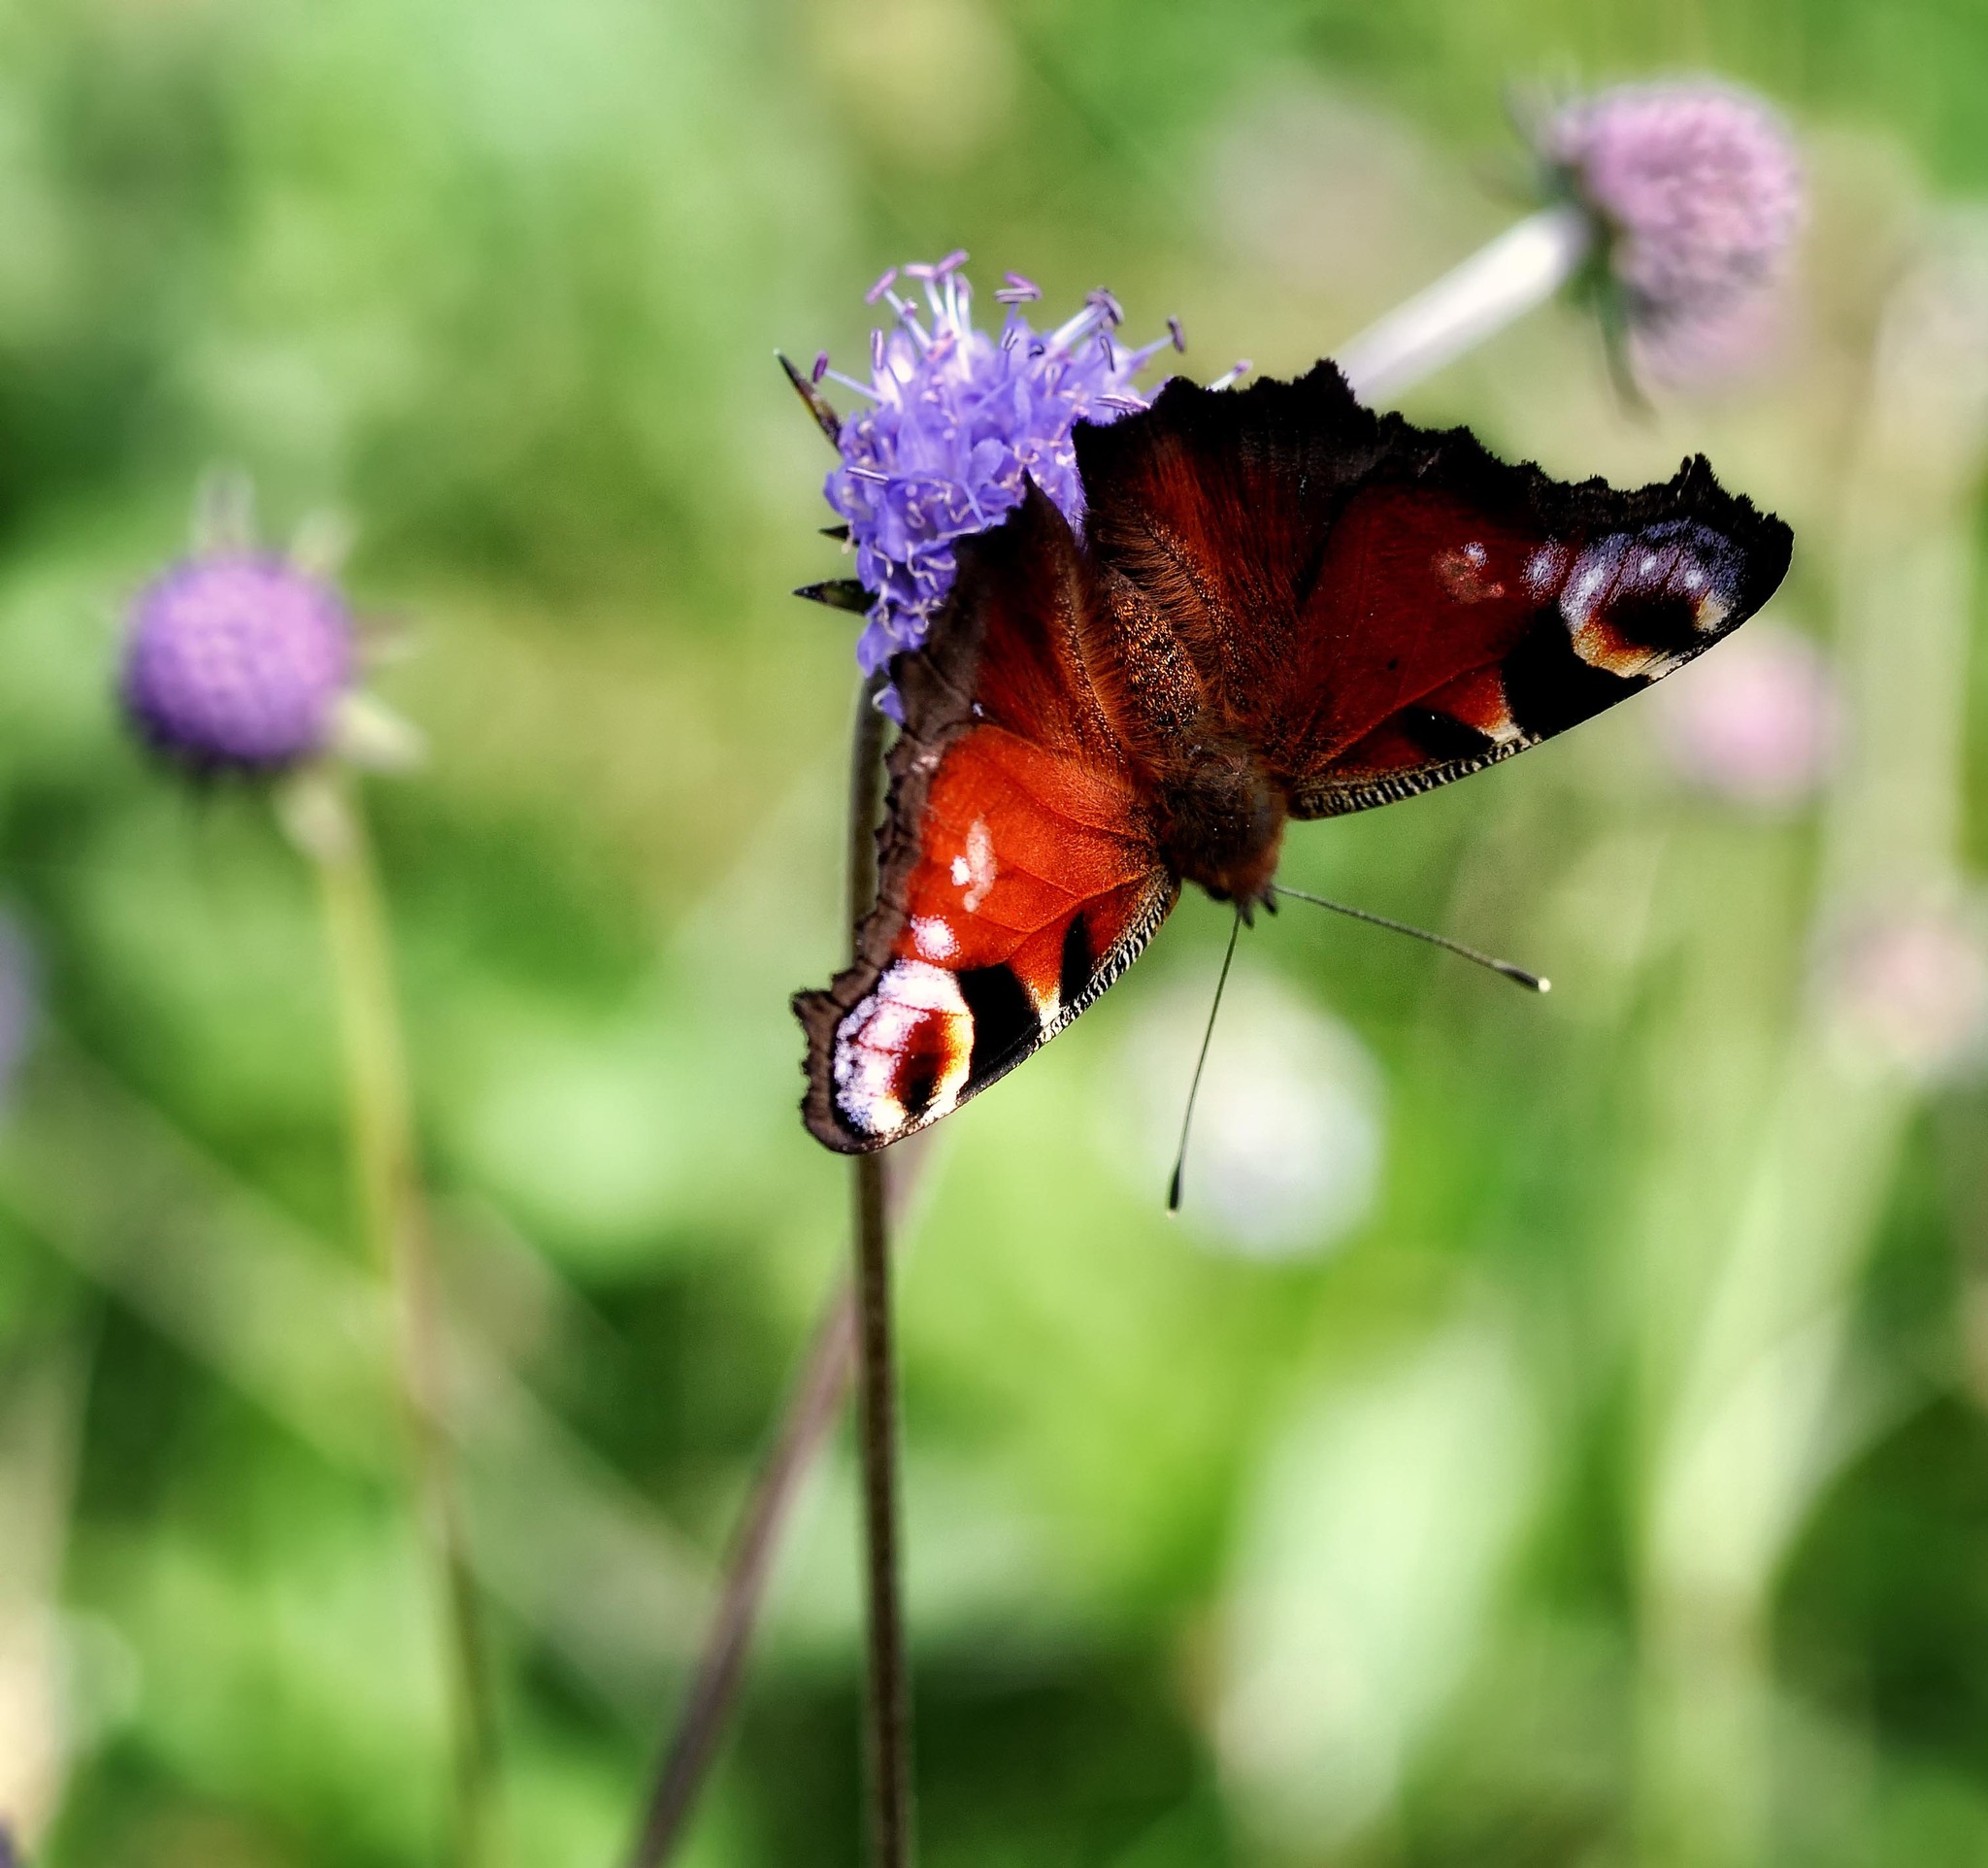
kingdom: Animalia
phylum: Arthropoda
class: Insecta
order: Lepidoptera
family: Nymphalidae
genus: Aglais
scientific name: Aglais io
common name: Peacock
